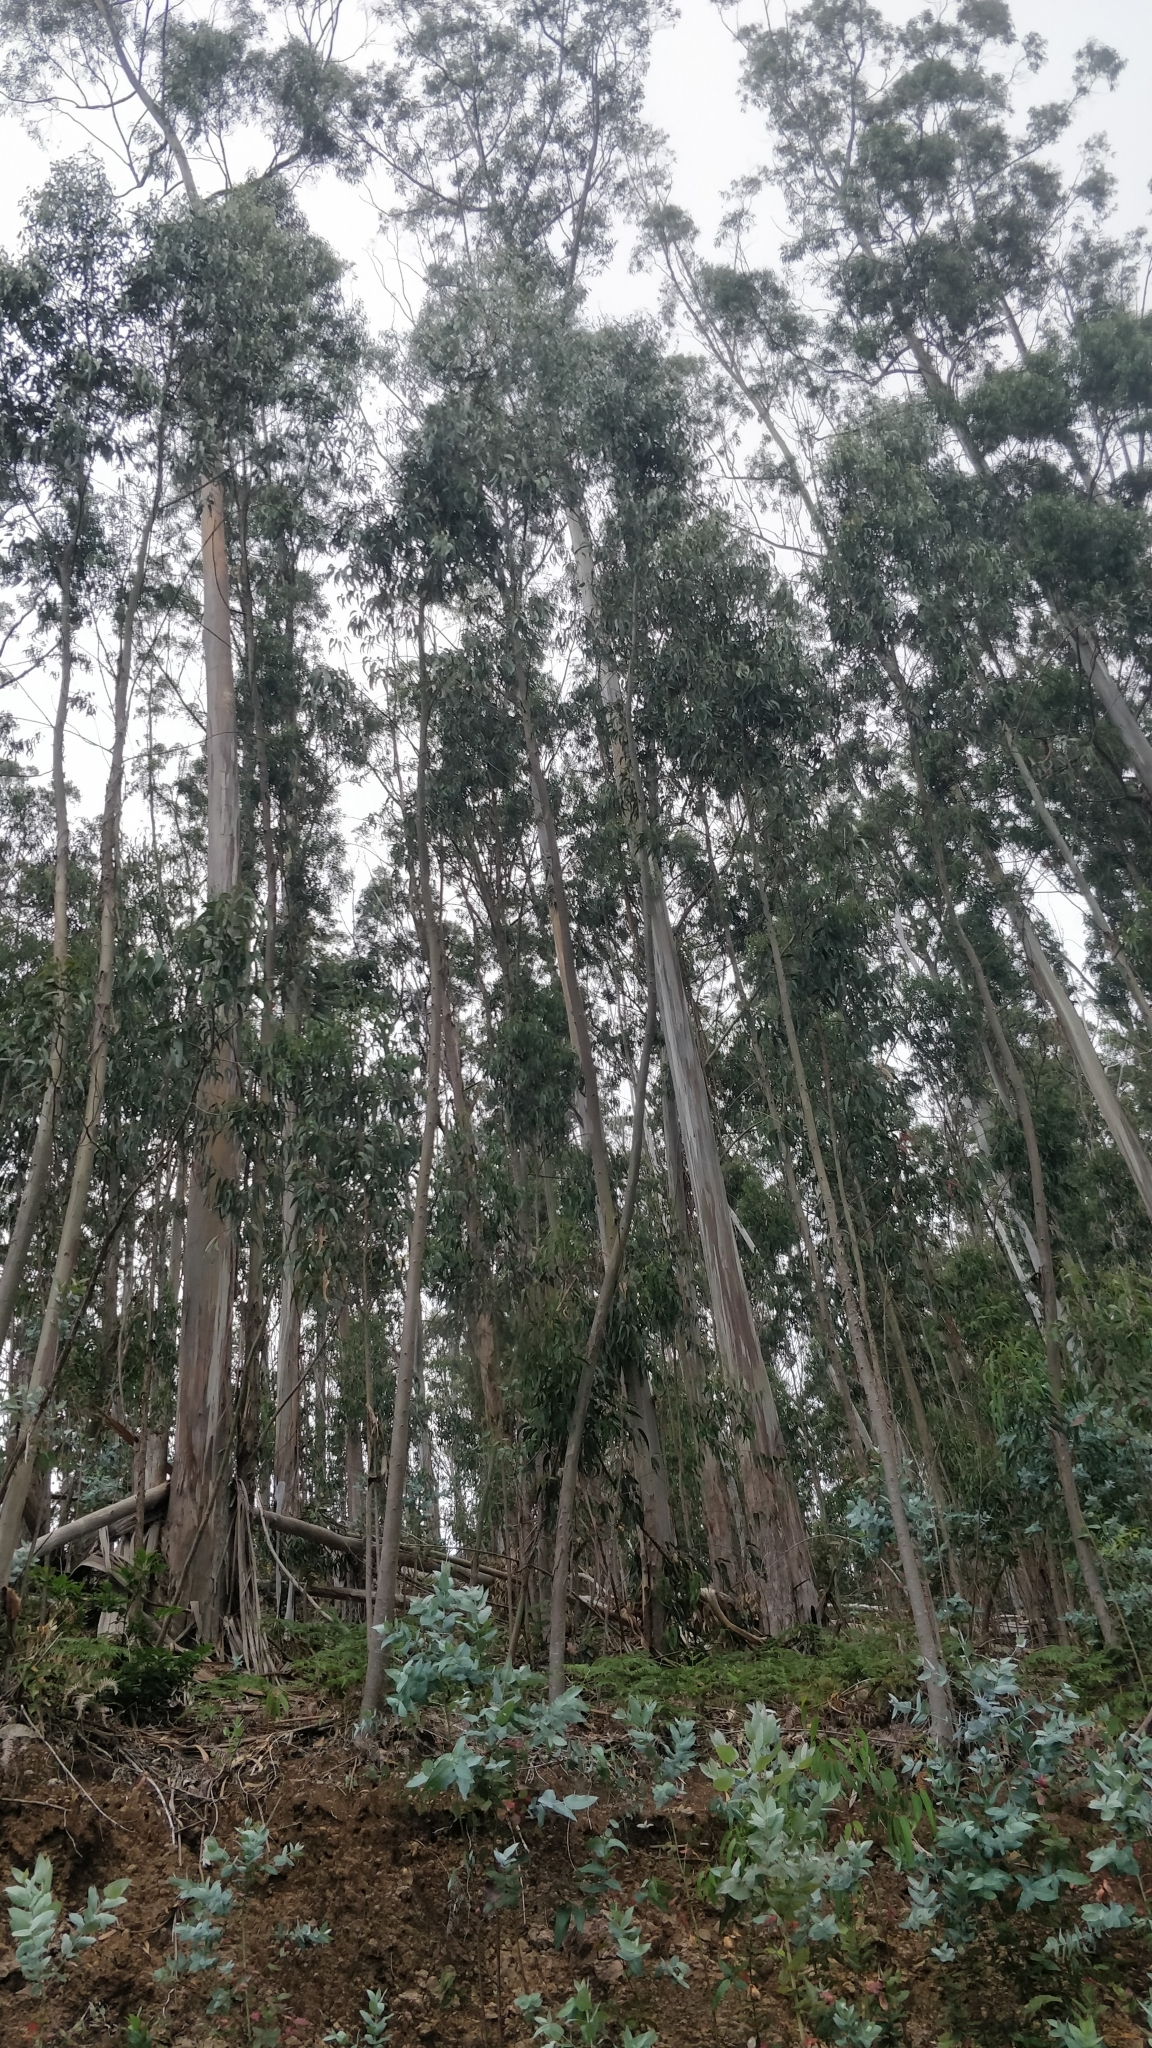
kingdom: Plantae
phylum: Tracheophyta
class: Magnoliopsida
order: Myrtales
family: Myrtaceae
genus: Eucalyptus
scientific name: Eucalyptus globulus
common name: Southern blue-gum
